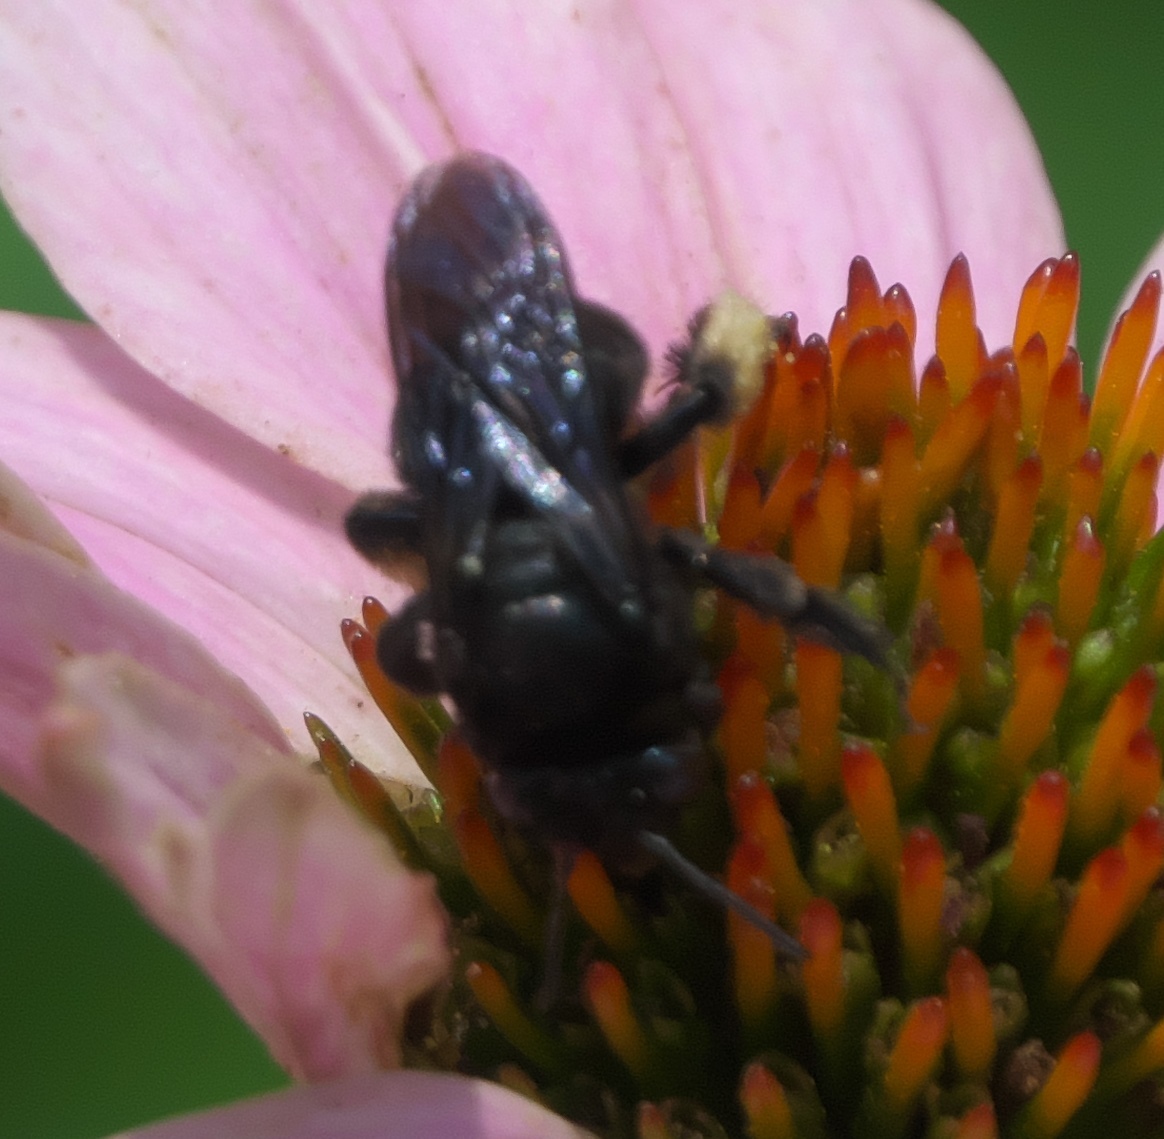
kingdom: Animalia
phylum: Arthropoda
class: Insecta
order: Hymenoptera
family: Apidae
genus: Melissodes
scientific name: Melissodes bimaculatus
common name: Two-spotted long-horned bee
